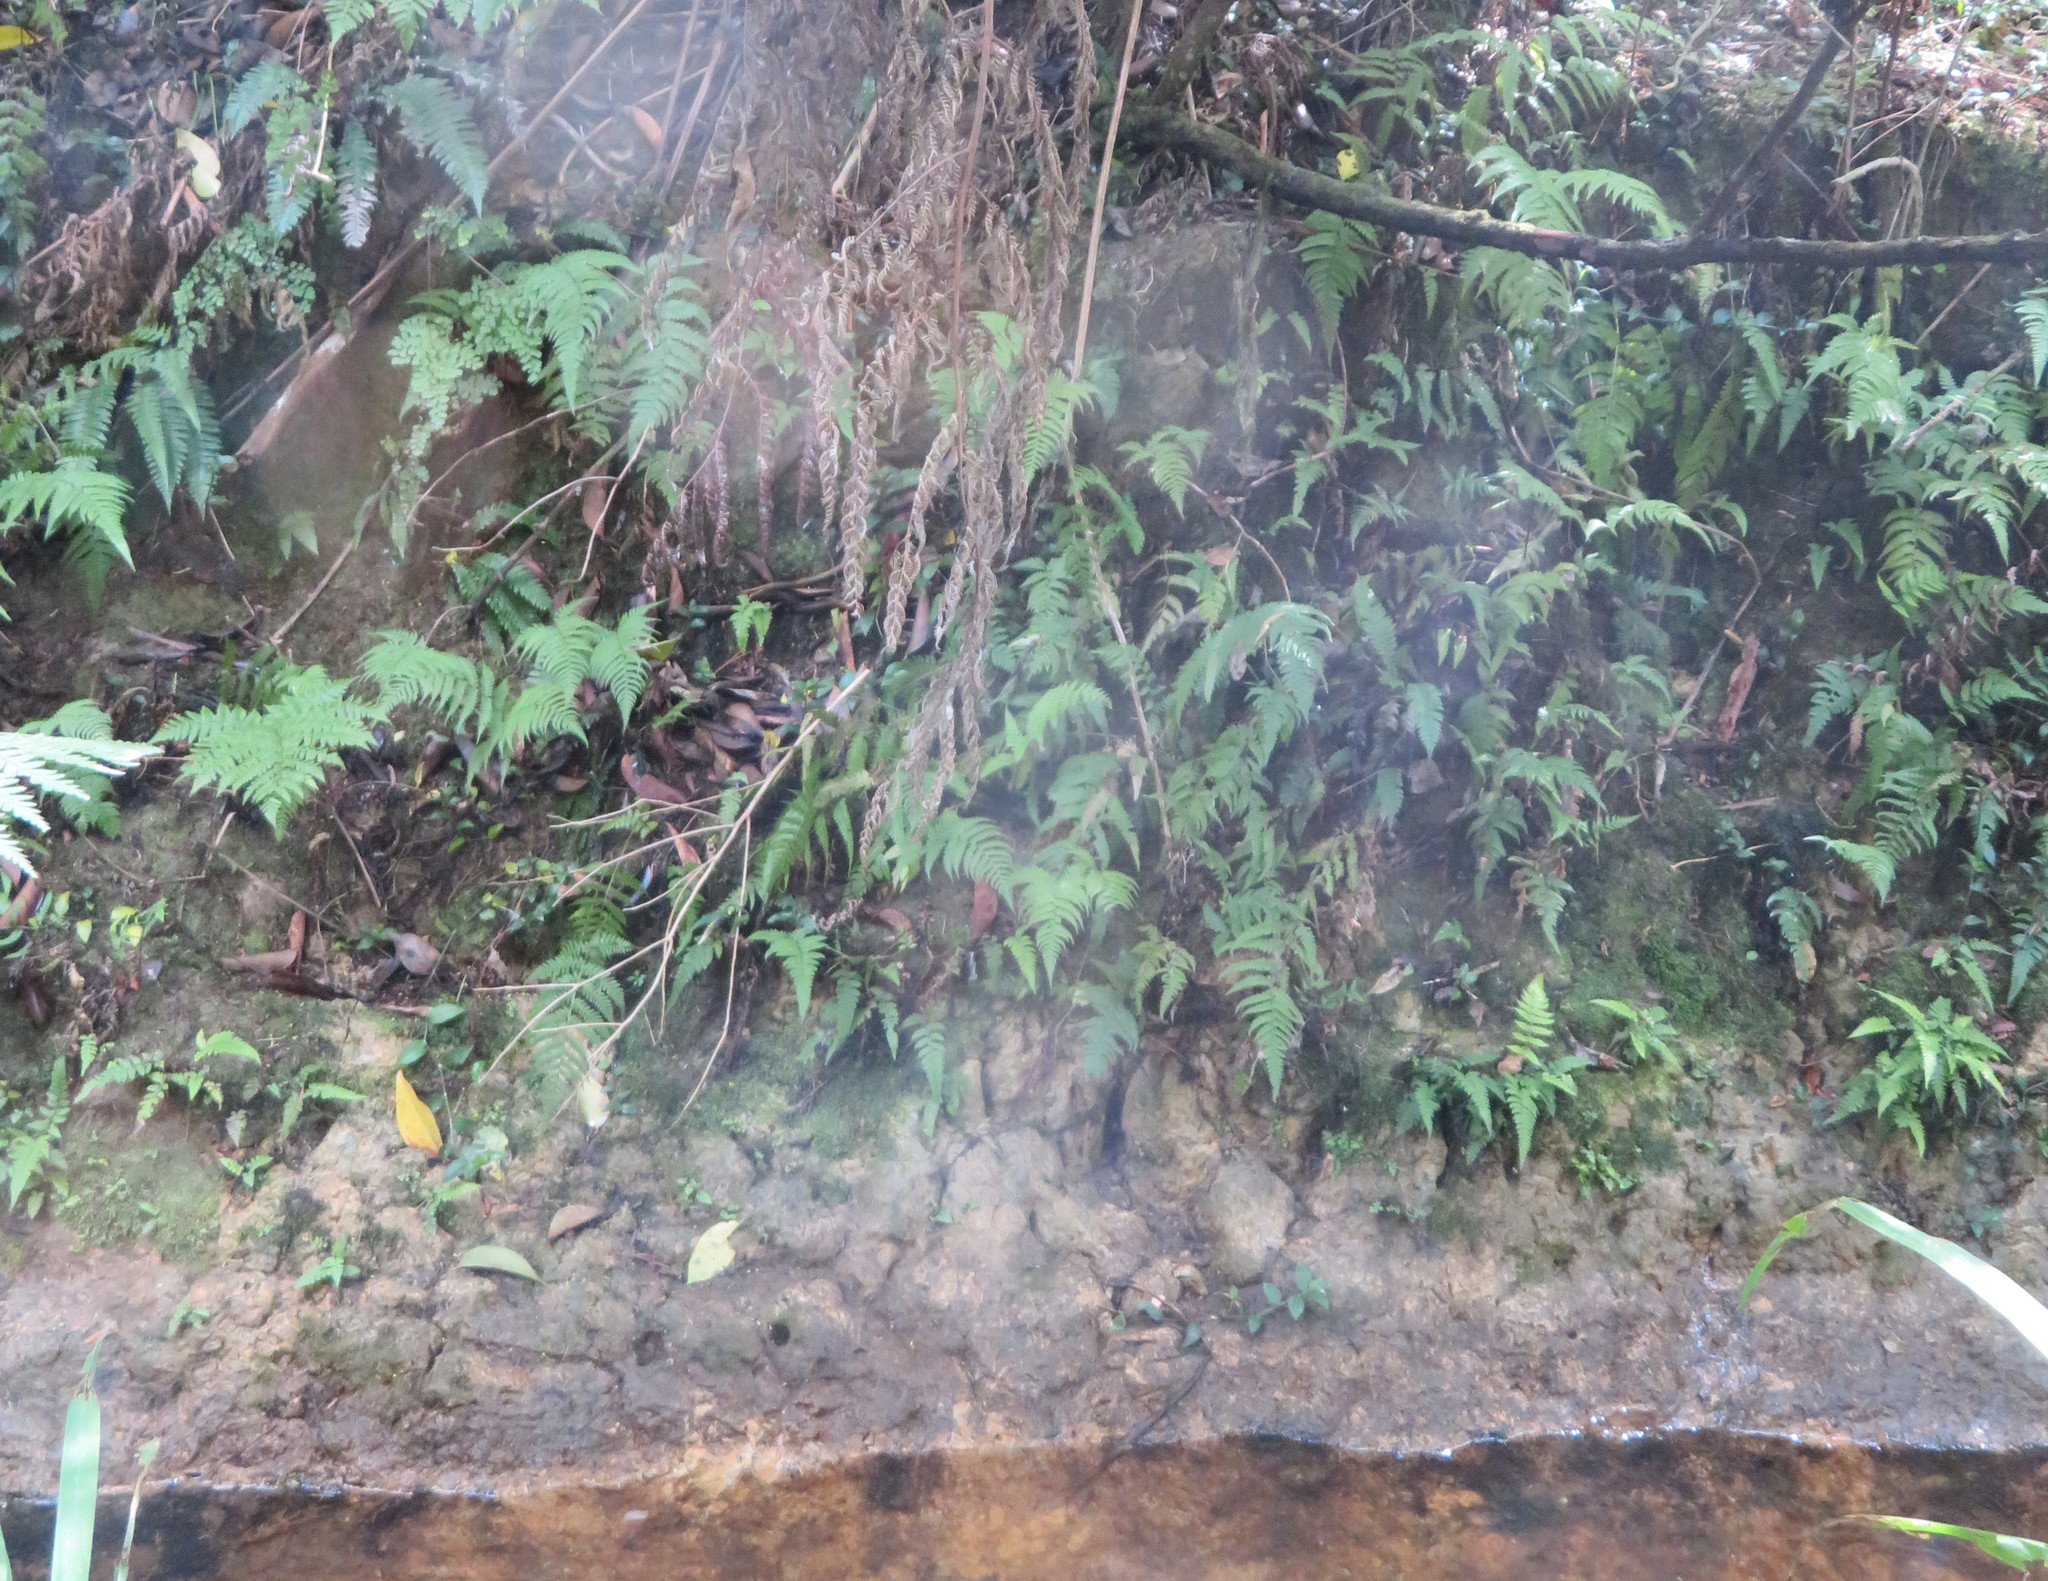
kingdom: Plantae
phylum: Tracheophyta
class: Liliopsida
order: Commelinales
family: Commelinaceae
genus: Tradescantia
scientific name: Tradescantia fluminensis
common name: Wandering-jew
